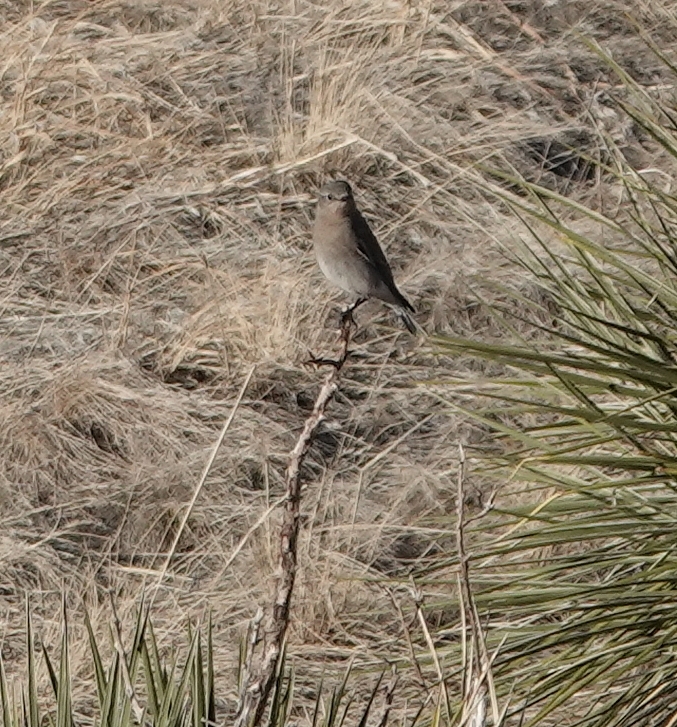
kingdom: Animalia
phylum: Chordata
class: Aves
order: Passeriformes
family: Turdidae
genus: Sialia
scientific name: Sialia currucoides
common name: Mountain bluebird
